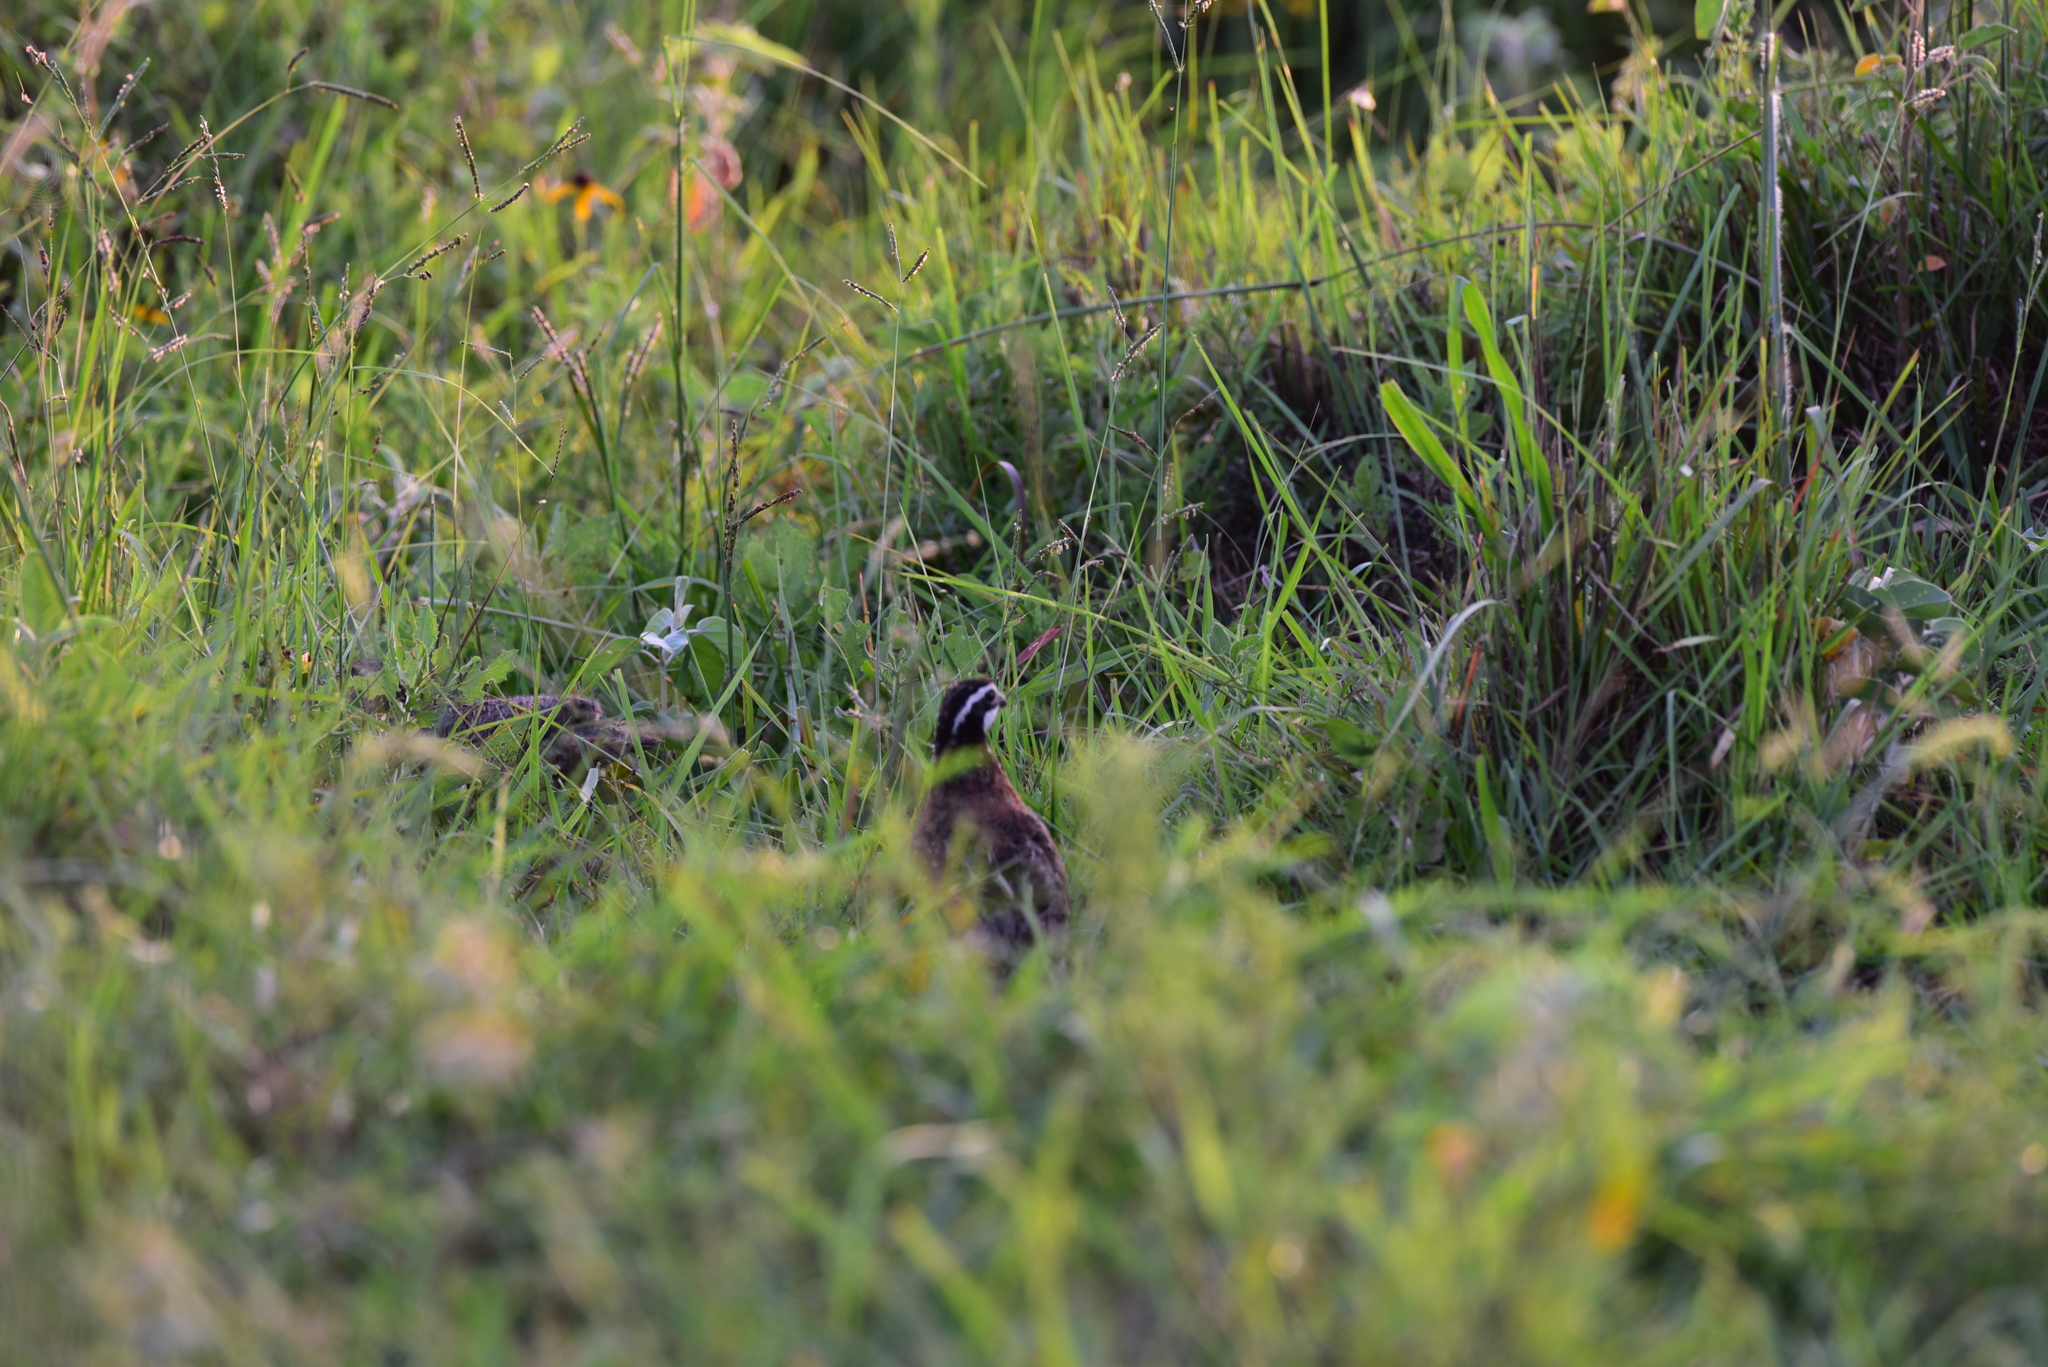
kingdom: Animalia
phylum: Chordata
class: Aves
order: Galliformes
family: Odontophoridae
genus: Colinus
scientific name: Colinus virginianus
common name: Northern bobwhite
